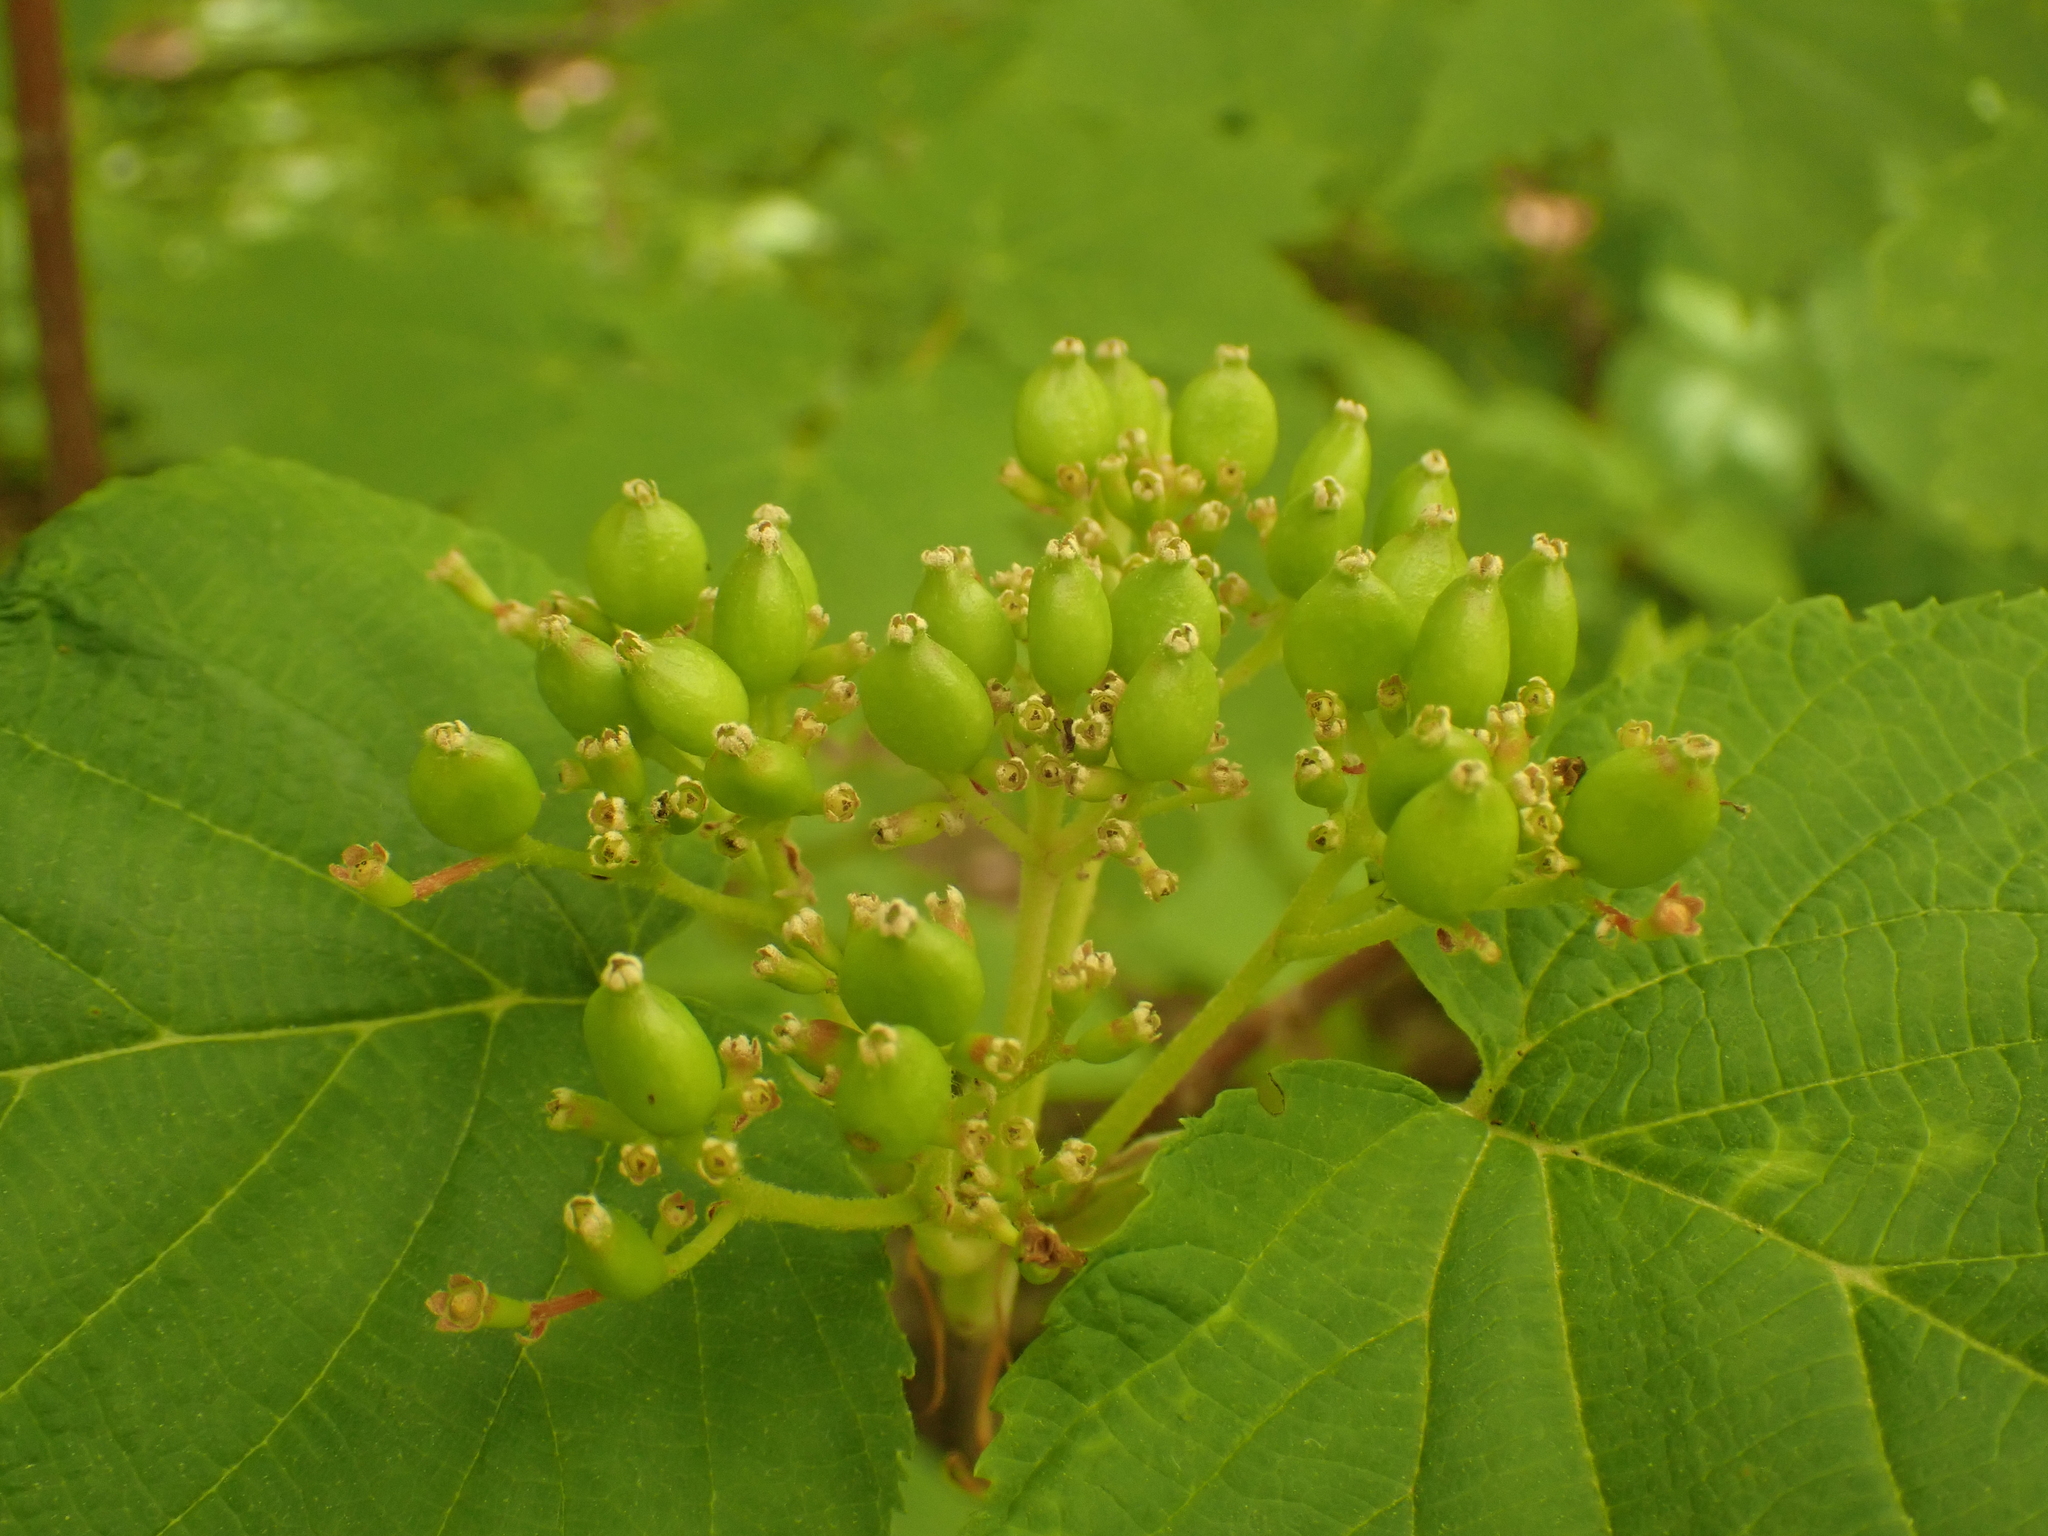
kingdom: Plantae
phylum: Tracheophyta
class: Magnoliopsida
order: Dipsacales
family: Viburnaceae
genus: Viburnum
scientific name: Viburnum lantanoides
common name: Hobblebush
